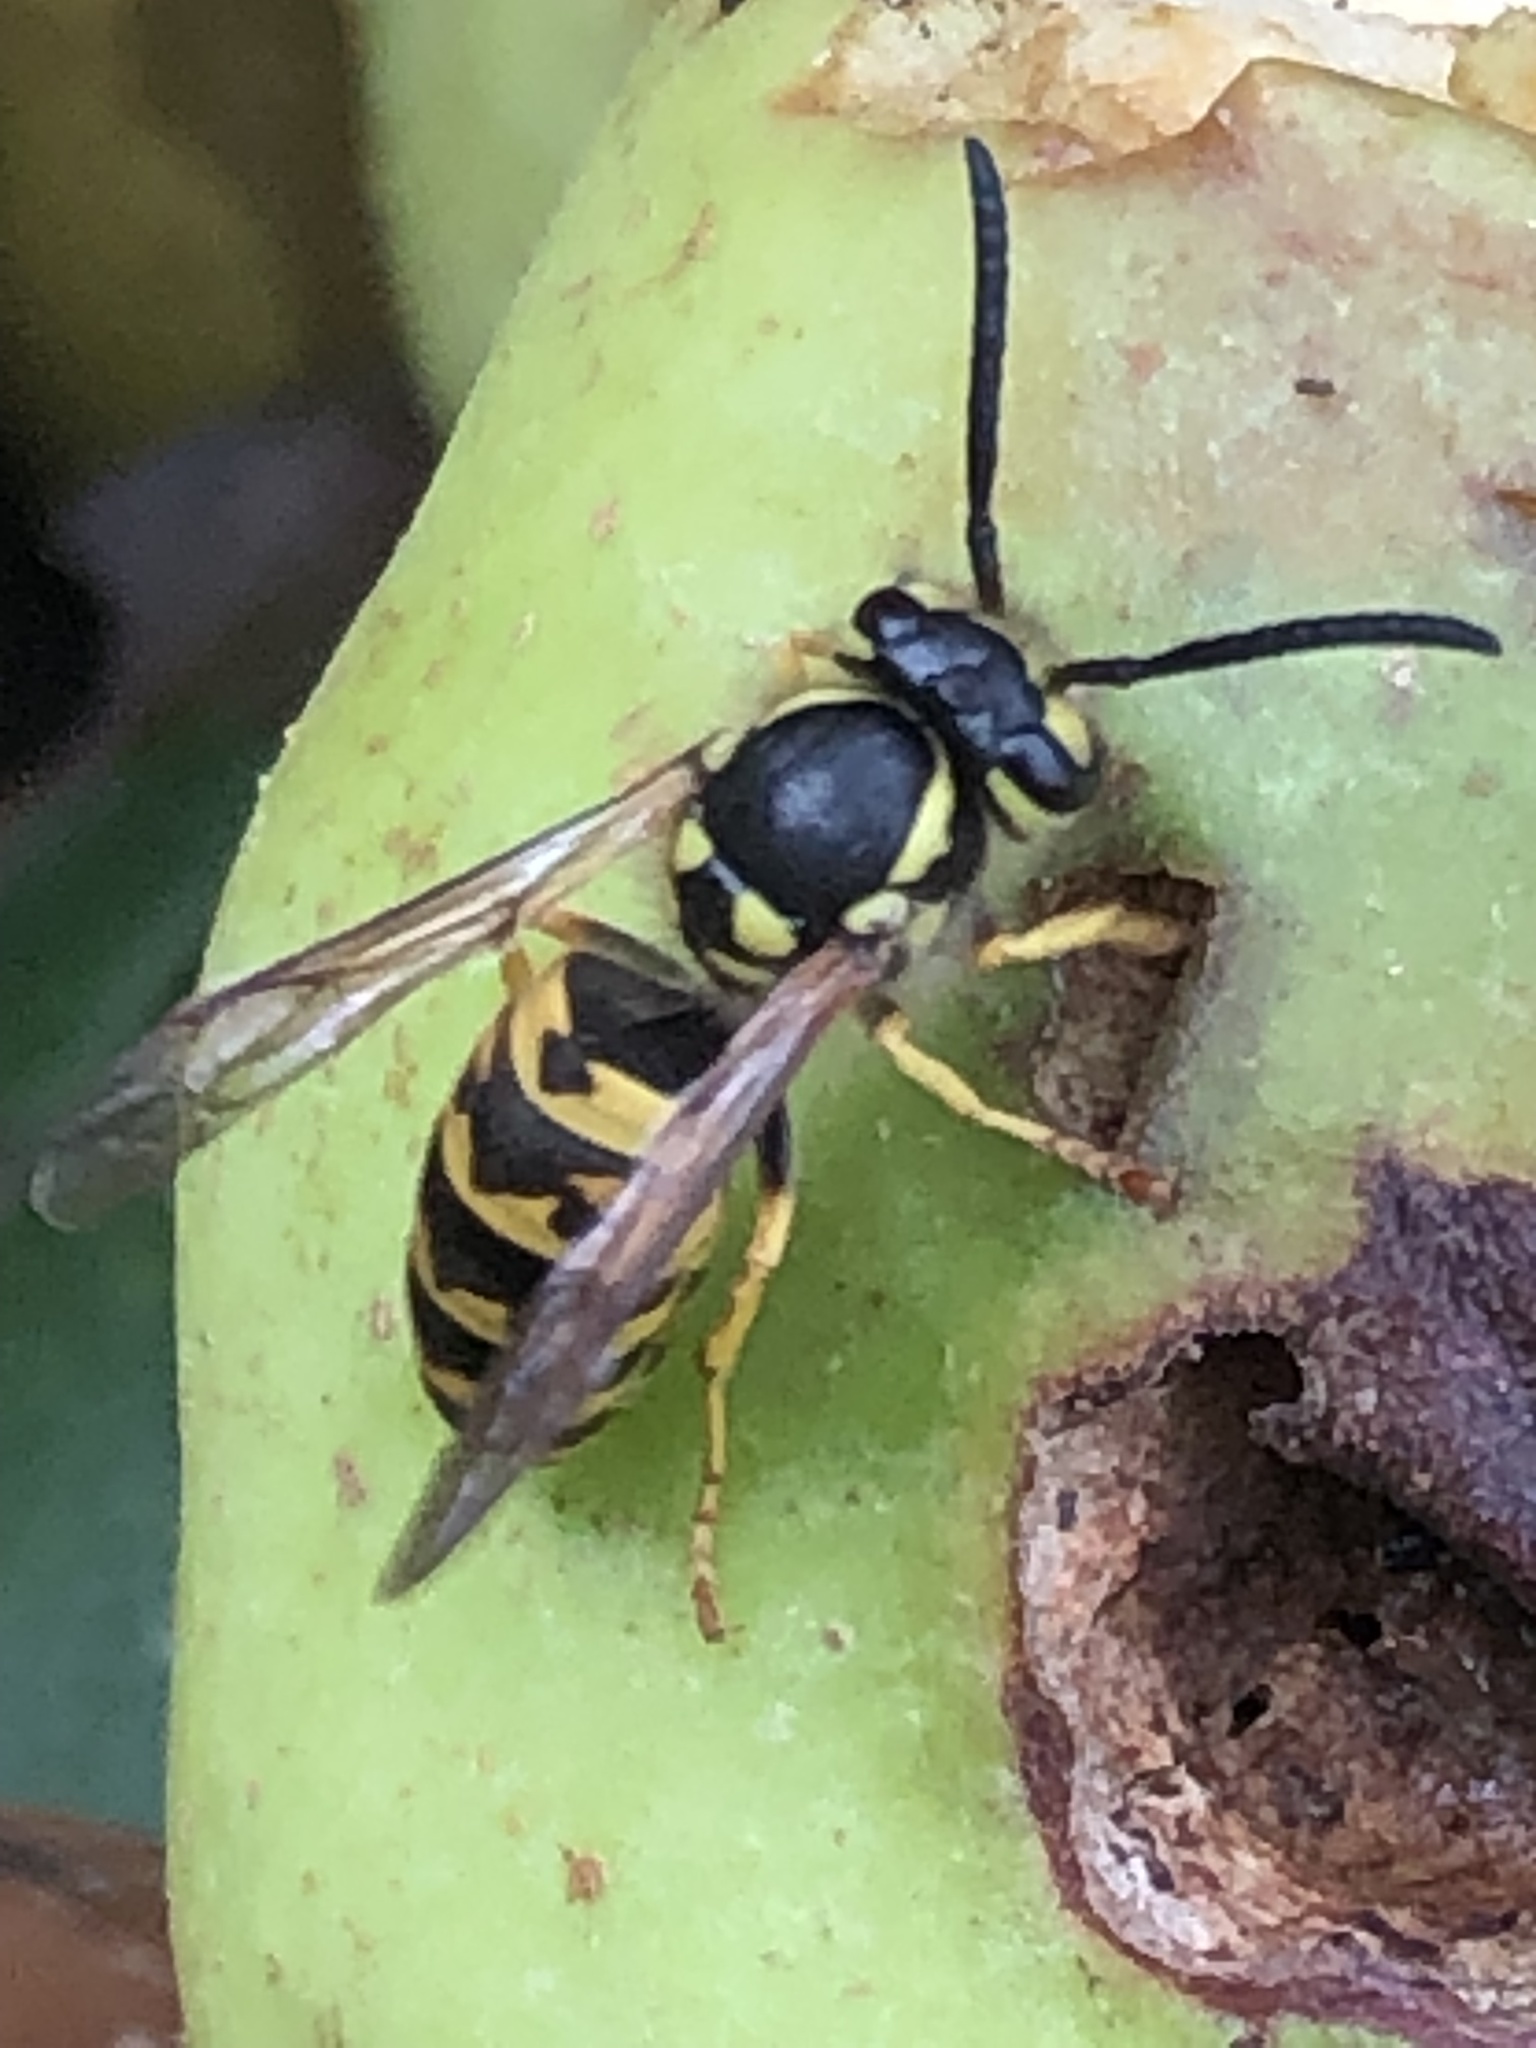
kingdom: Animalia
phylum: Arthropoda
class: Insecta
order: Hymenoptera
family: Vespidae
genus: Vespula
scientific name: Vespula germanica
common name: German wasp
